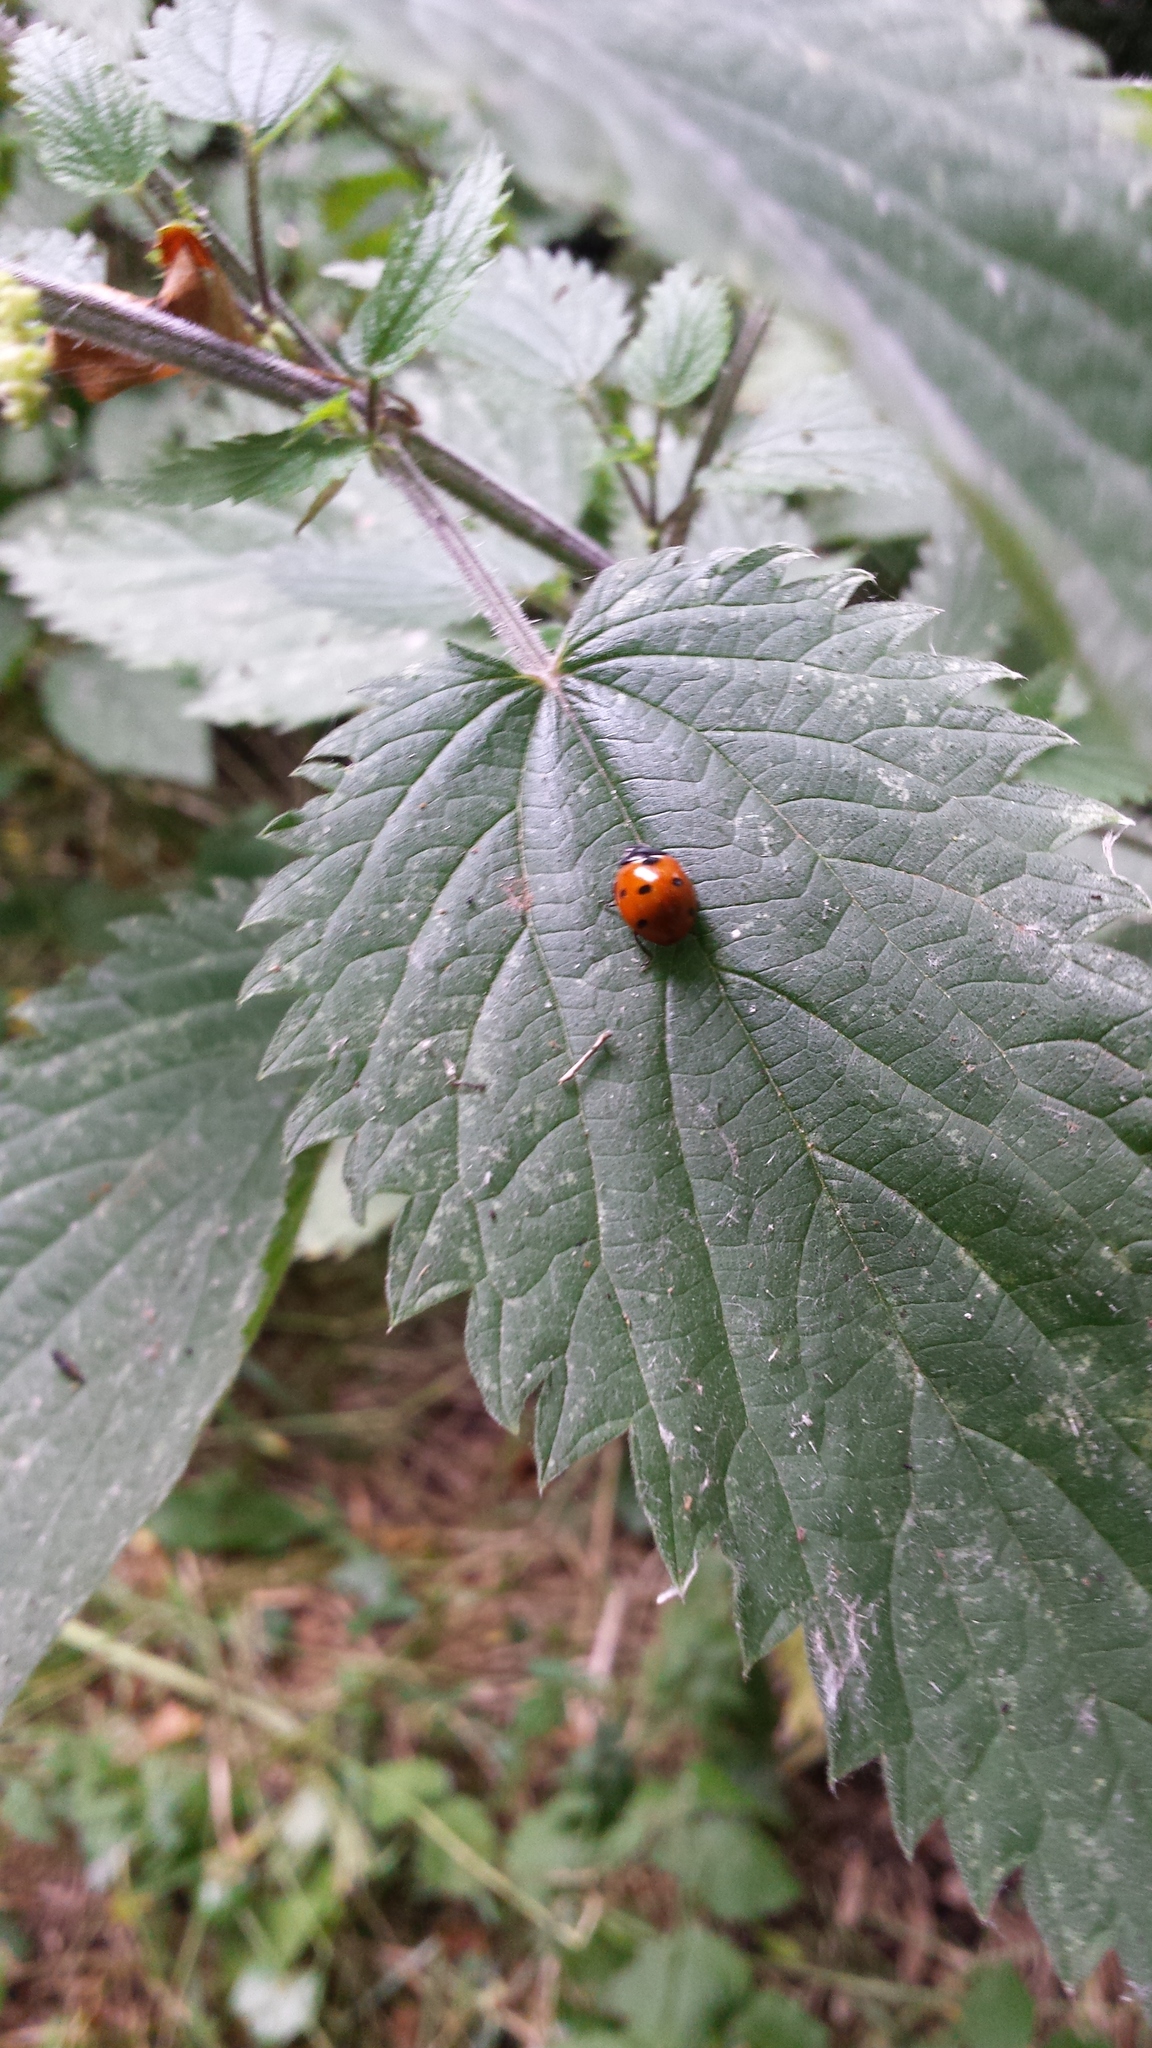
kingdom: Animalia
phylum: Arthropoda
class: Insecta
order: Coleoptera
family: Coccinellidae
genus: Coccinella
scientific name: Coccinella septempunctata
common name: Sevenspotted lady beetle
